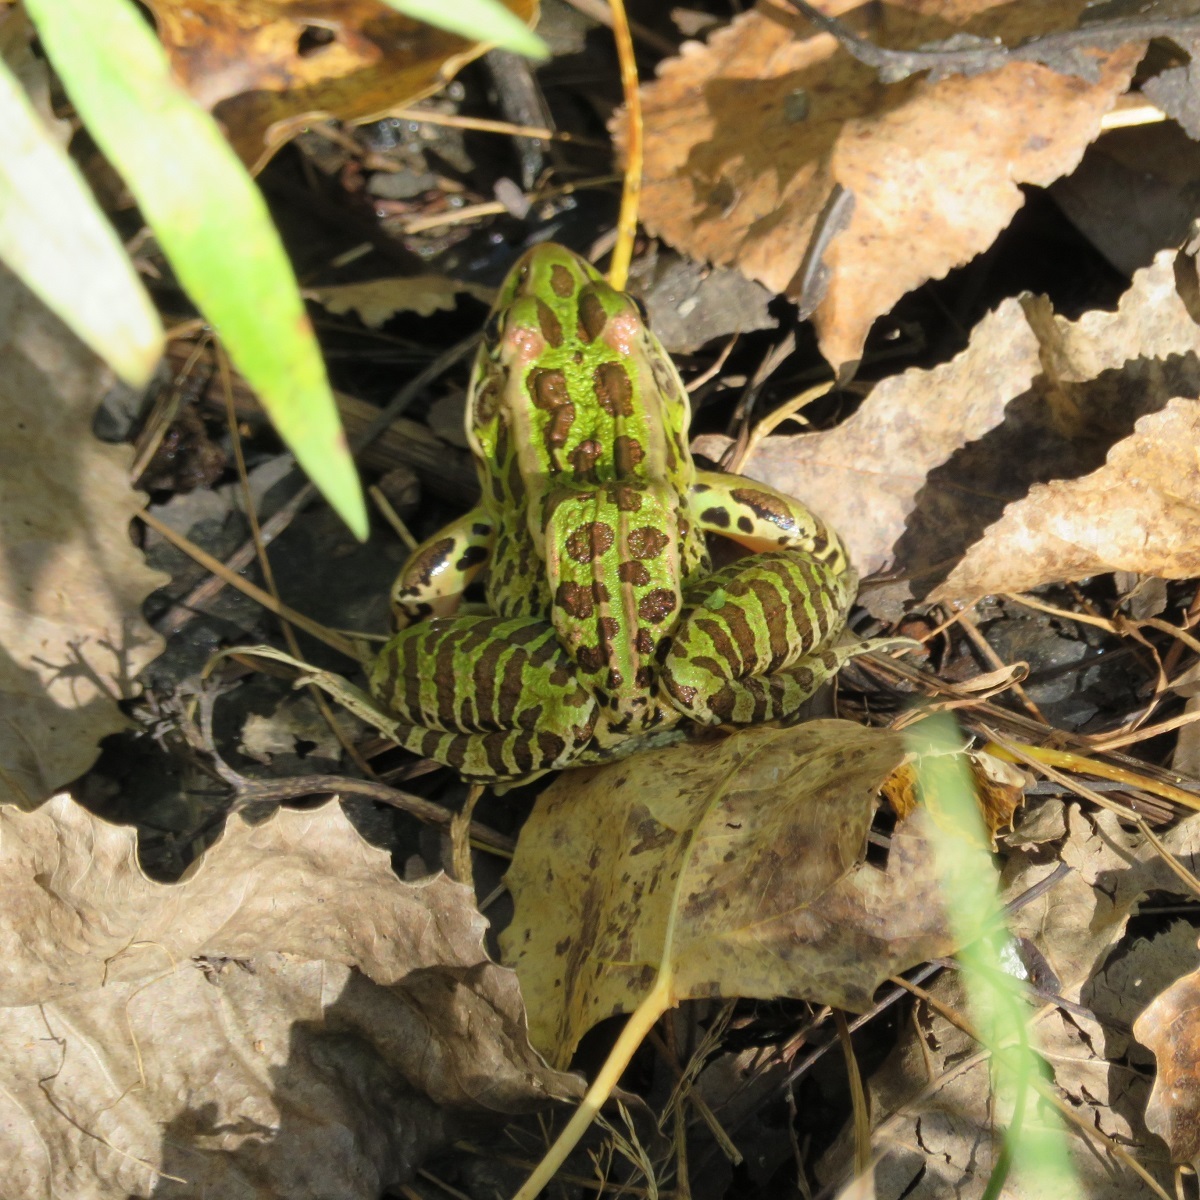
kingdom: Animalia
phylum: Chordata
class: Amphibia
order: Anura
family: Ranidae
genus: Lithobates
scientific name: Lithobates pipiens
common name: Northern leopard frog
